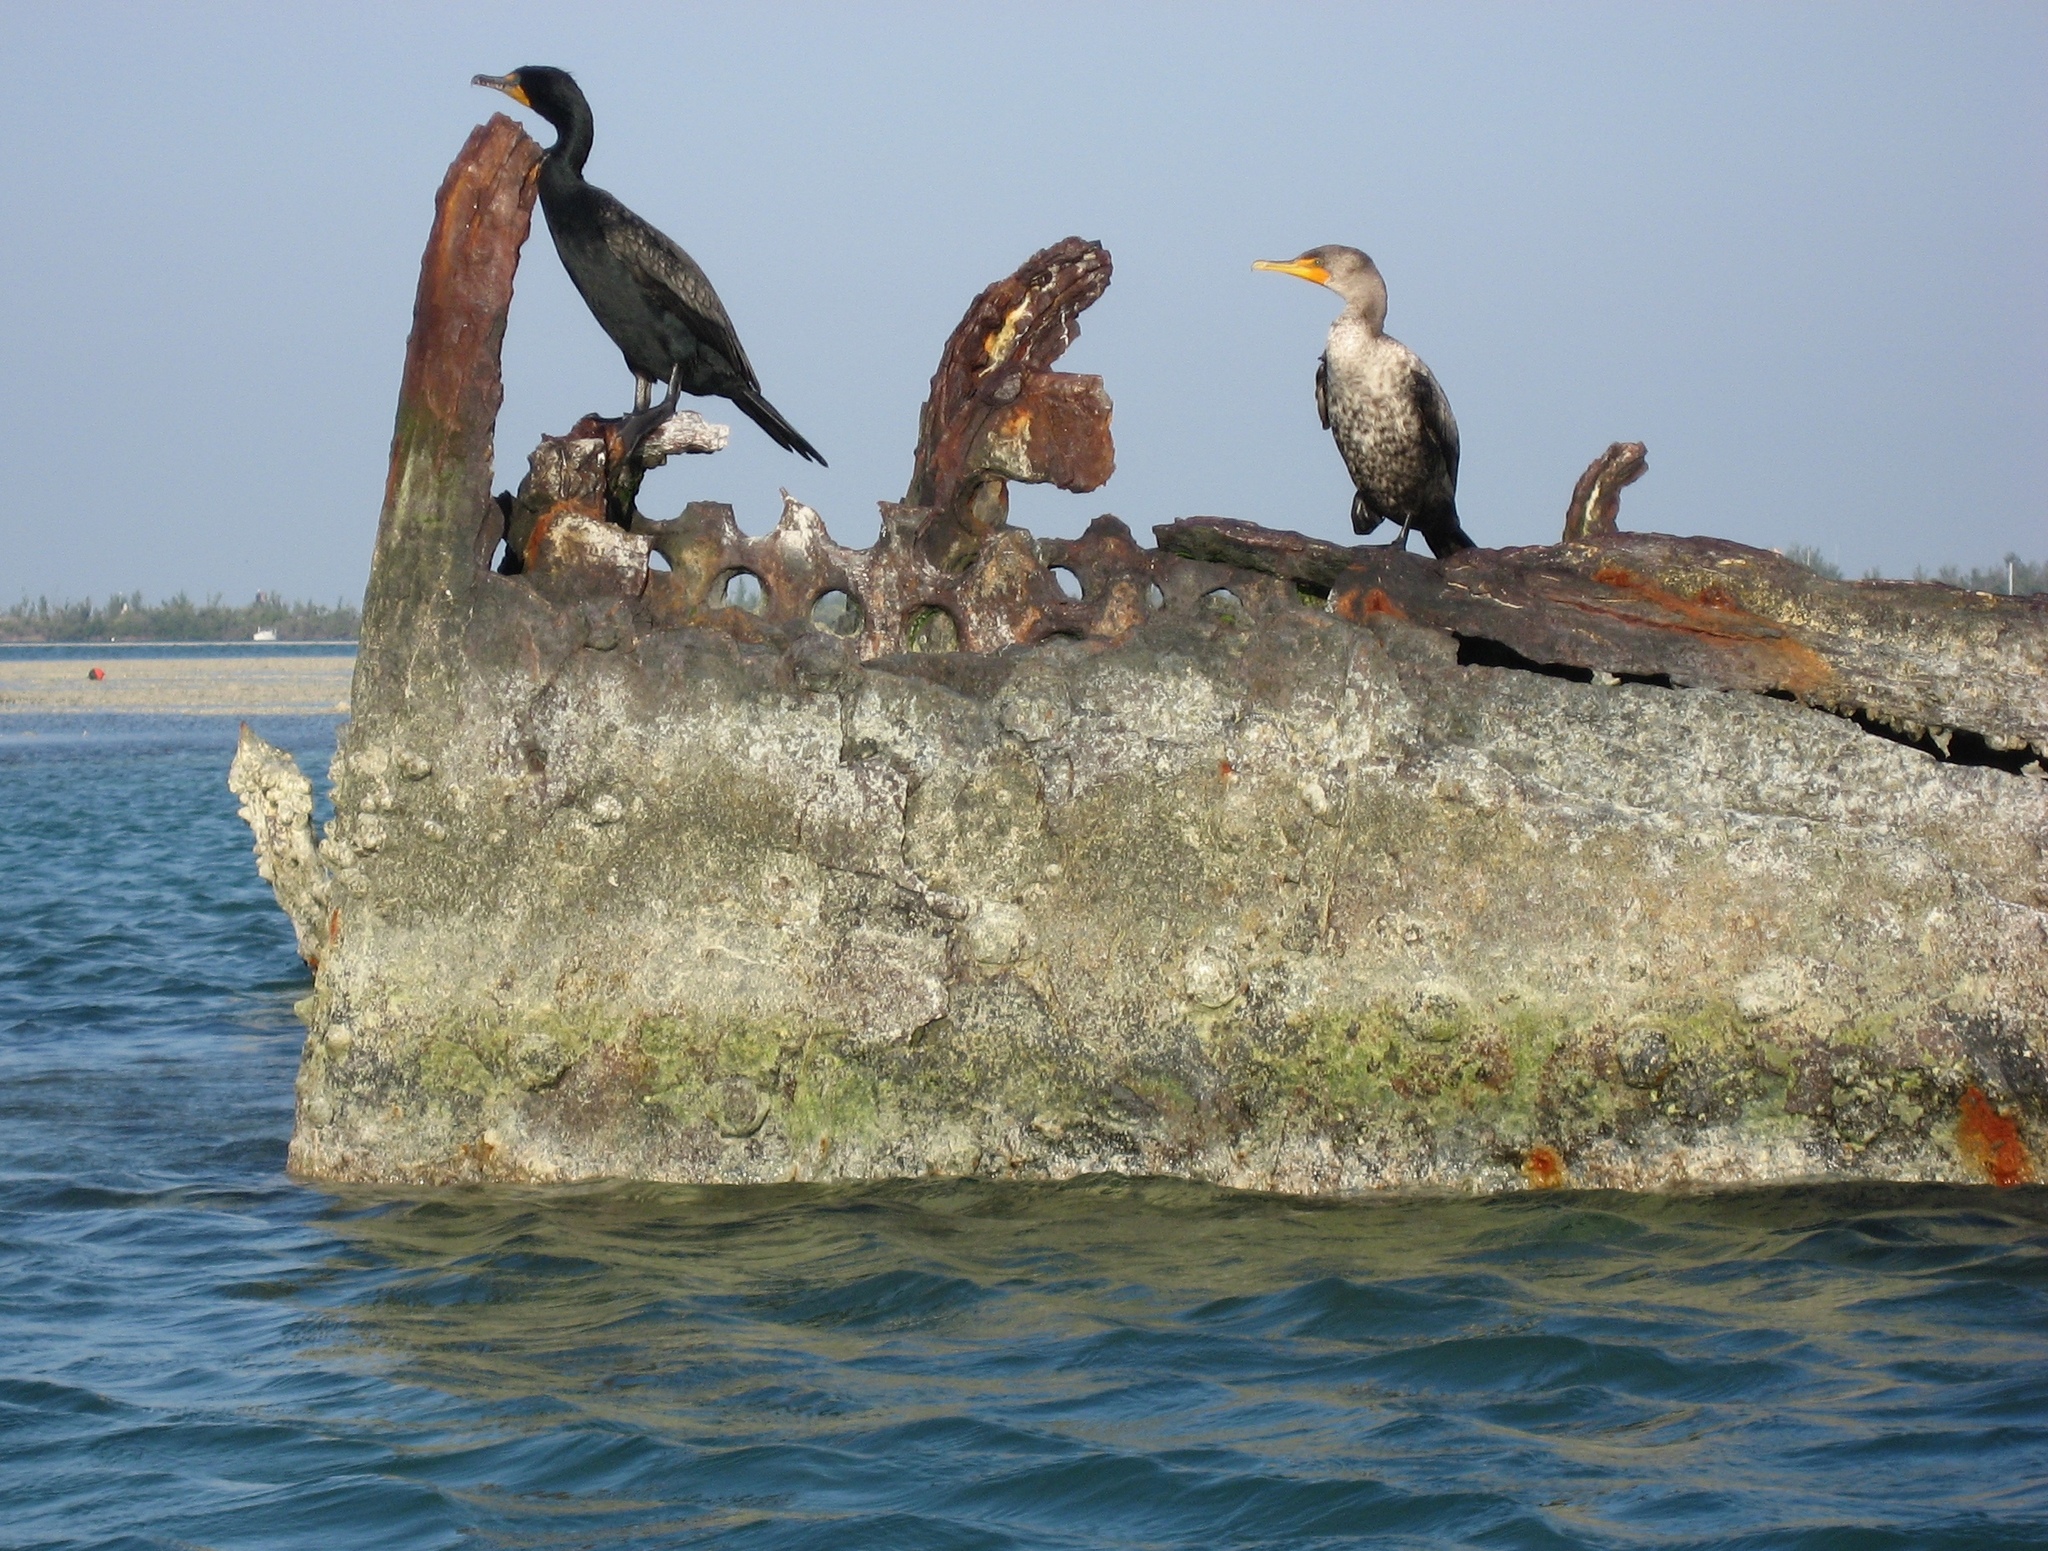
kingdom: Animalia
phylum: Chordata
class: Aves
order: Suliformes
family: Phalacrocoracidae
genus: Phalacrocorax
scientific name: Phalacrocorax auritus
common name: Double-crested cormorant
